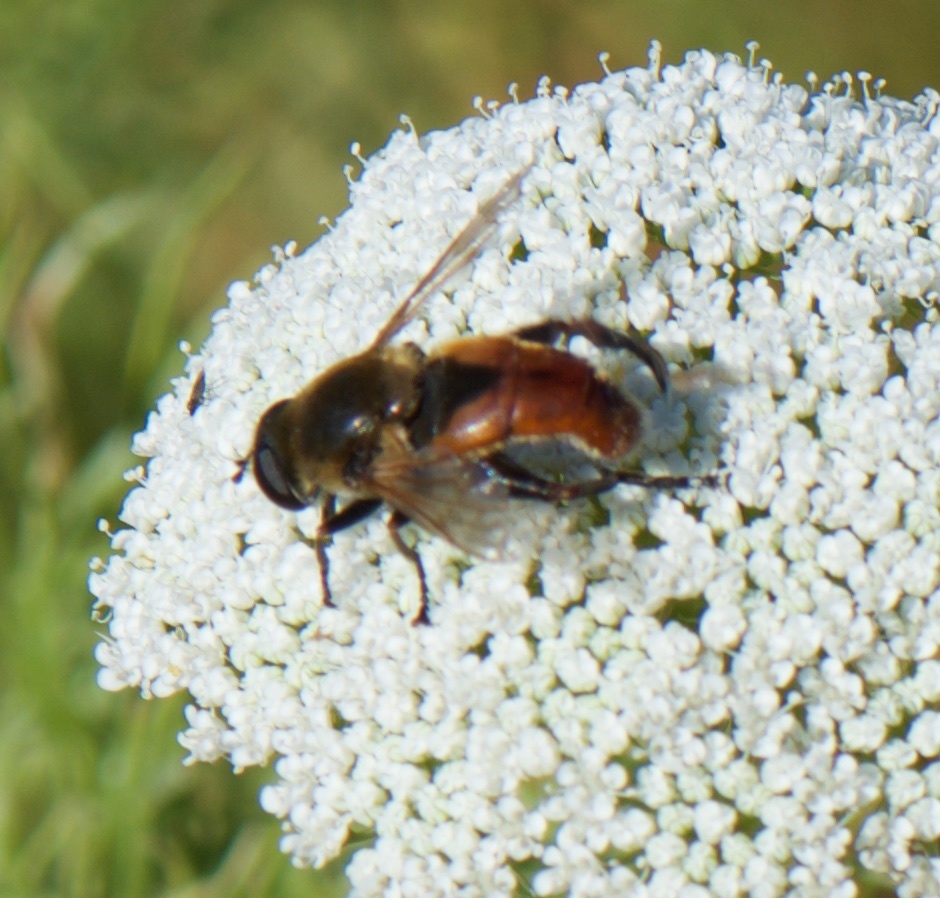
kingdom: Animalia
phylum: Arthropoda
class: Insecta
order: Diptera
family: Syrphidae
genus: Polydontomyia
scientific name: Polydontomyia curvipes
